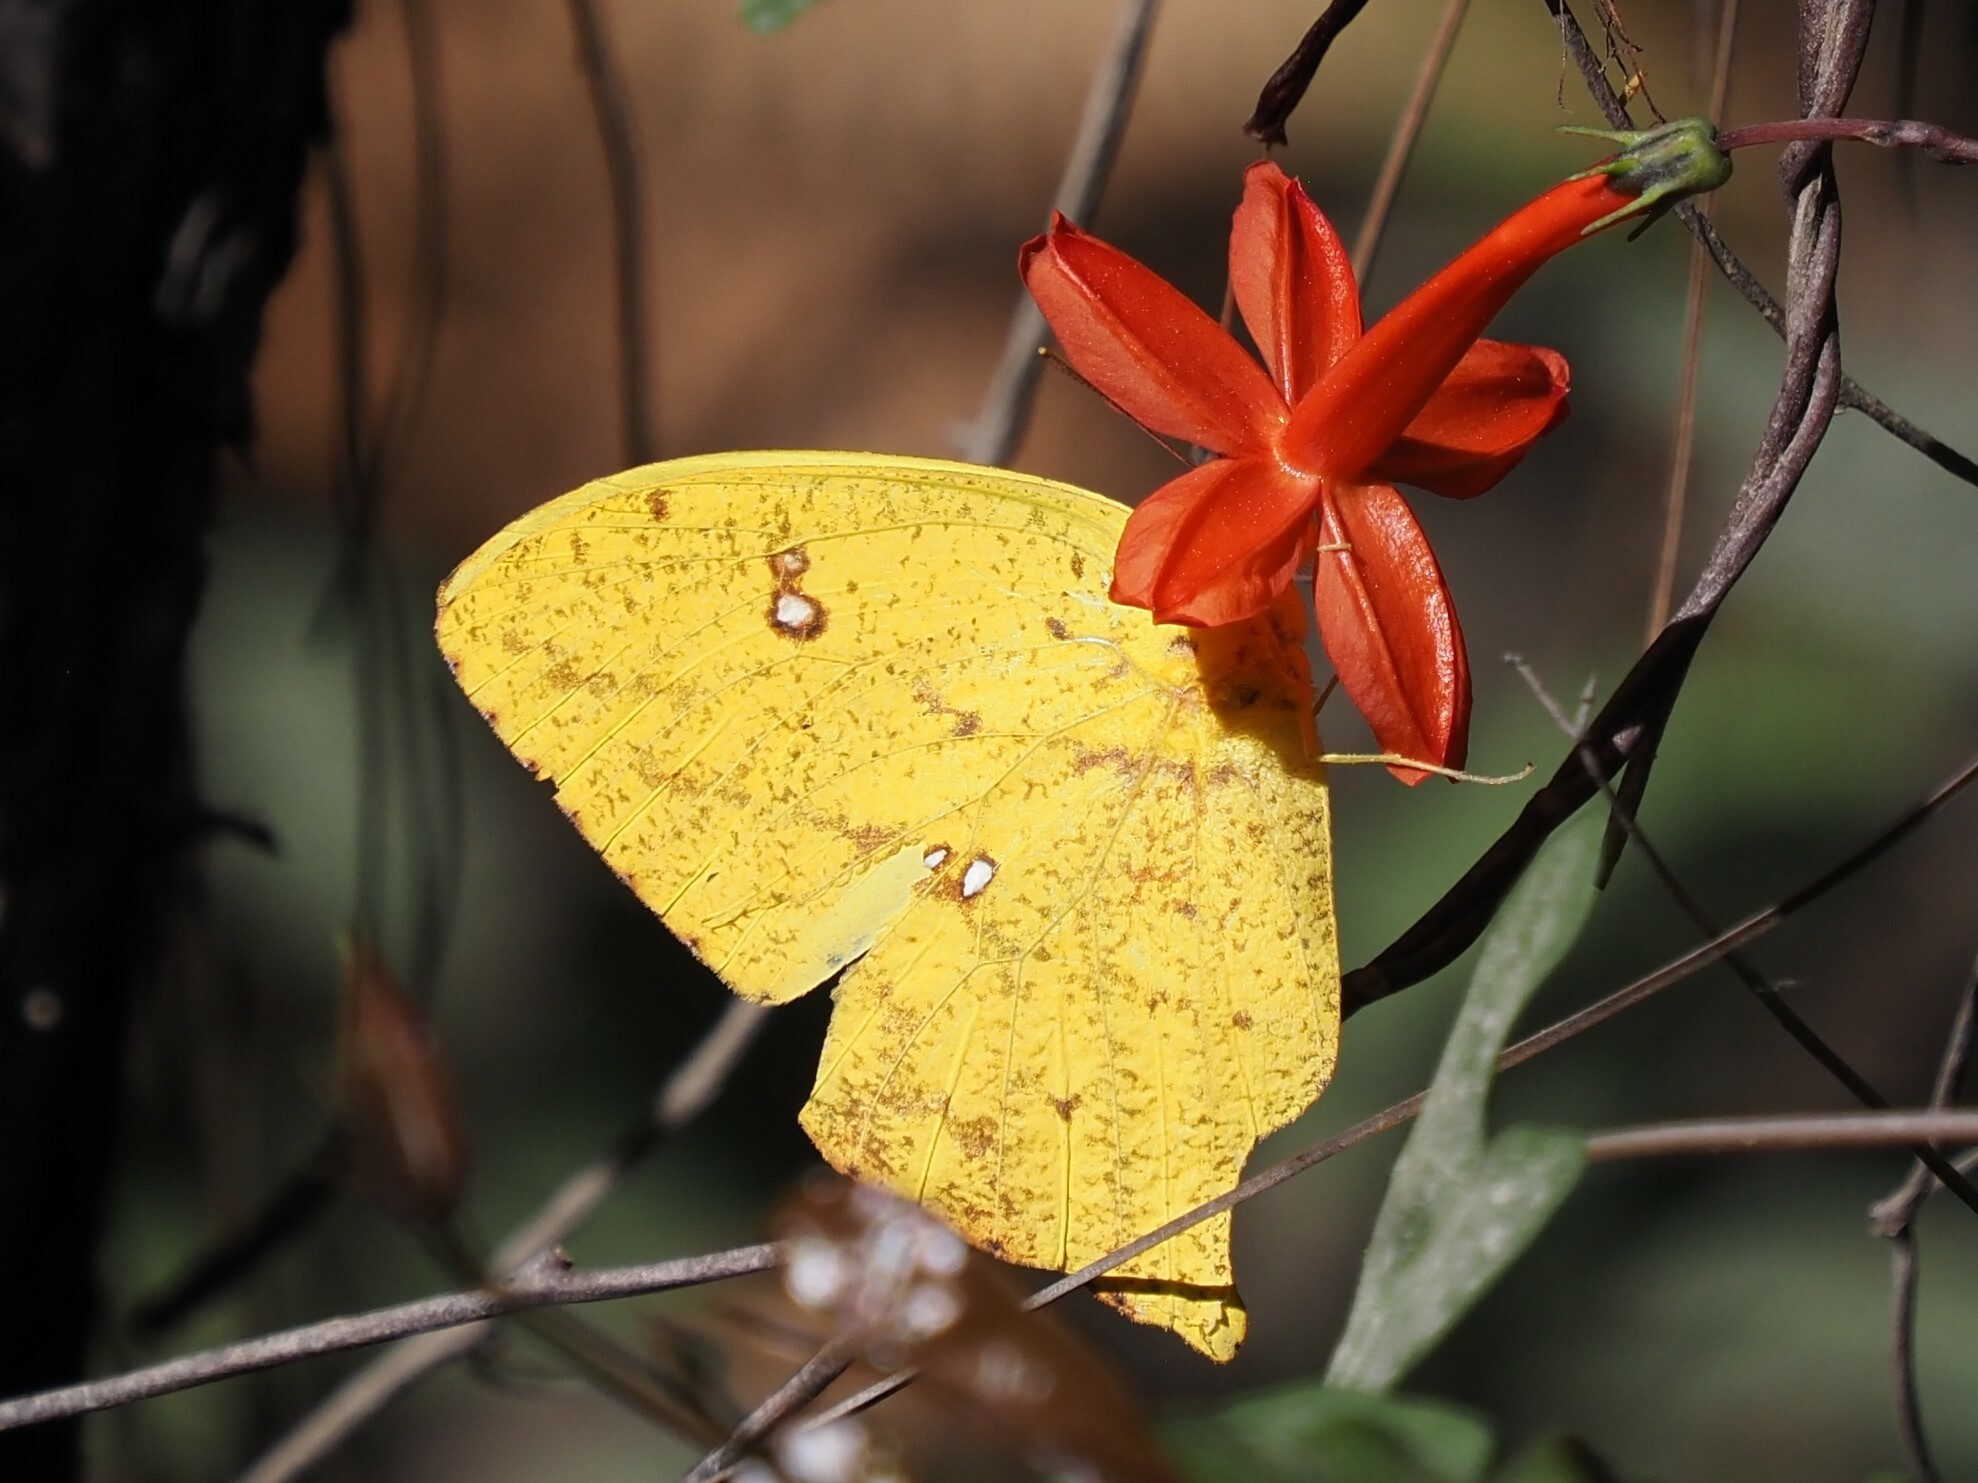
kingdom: Animalia
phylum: Arthropoda
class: Insecta
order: Lepidoptera
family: Pieridae
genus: Phoebis
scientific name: Phoebis virgo
